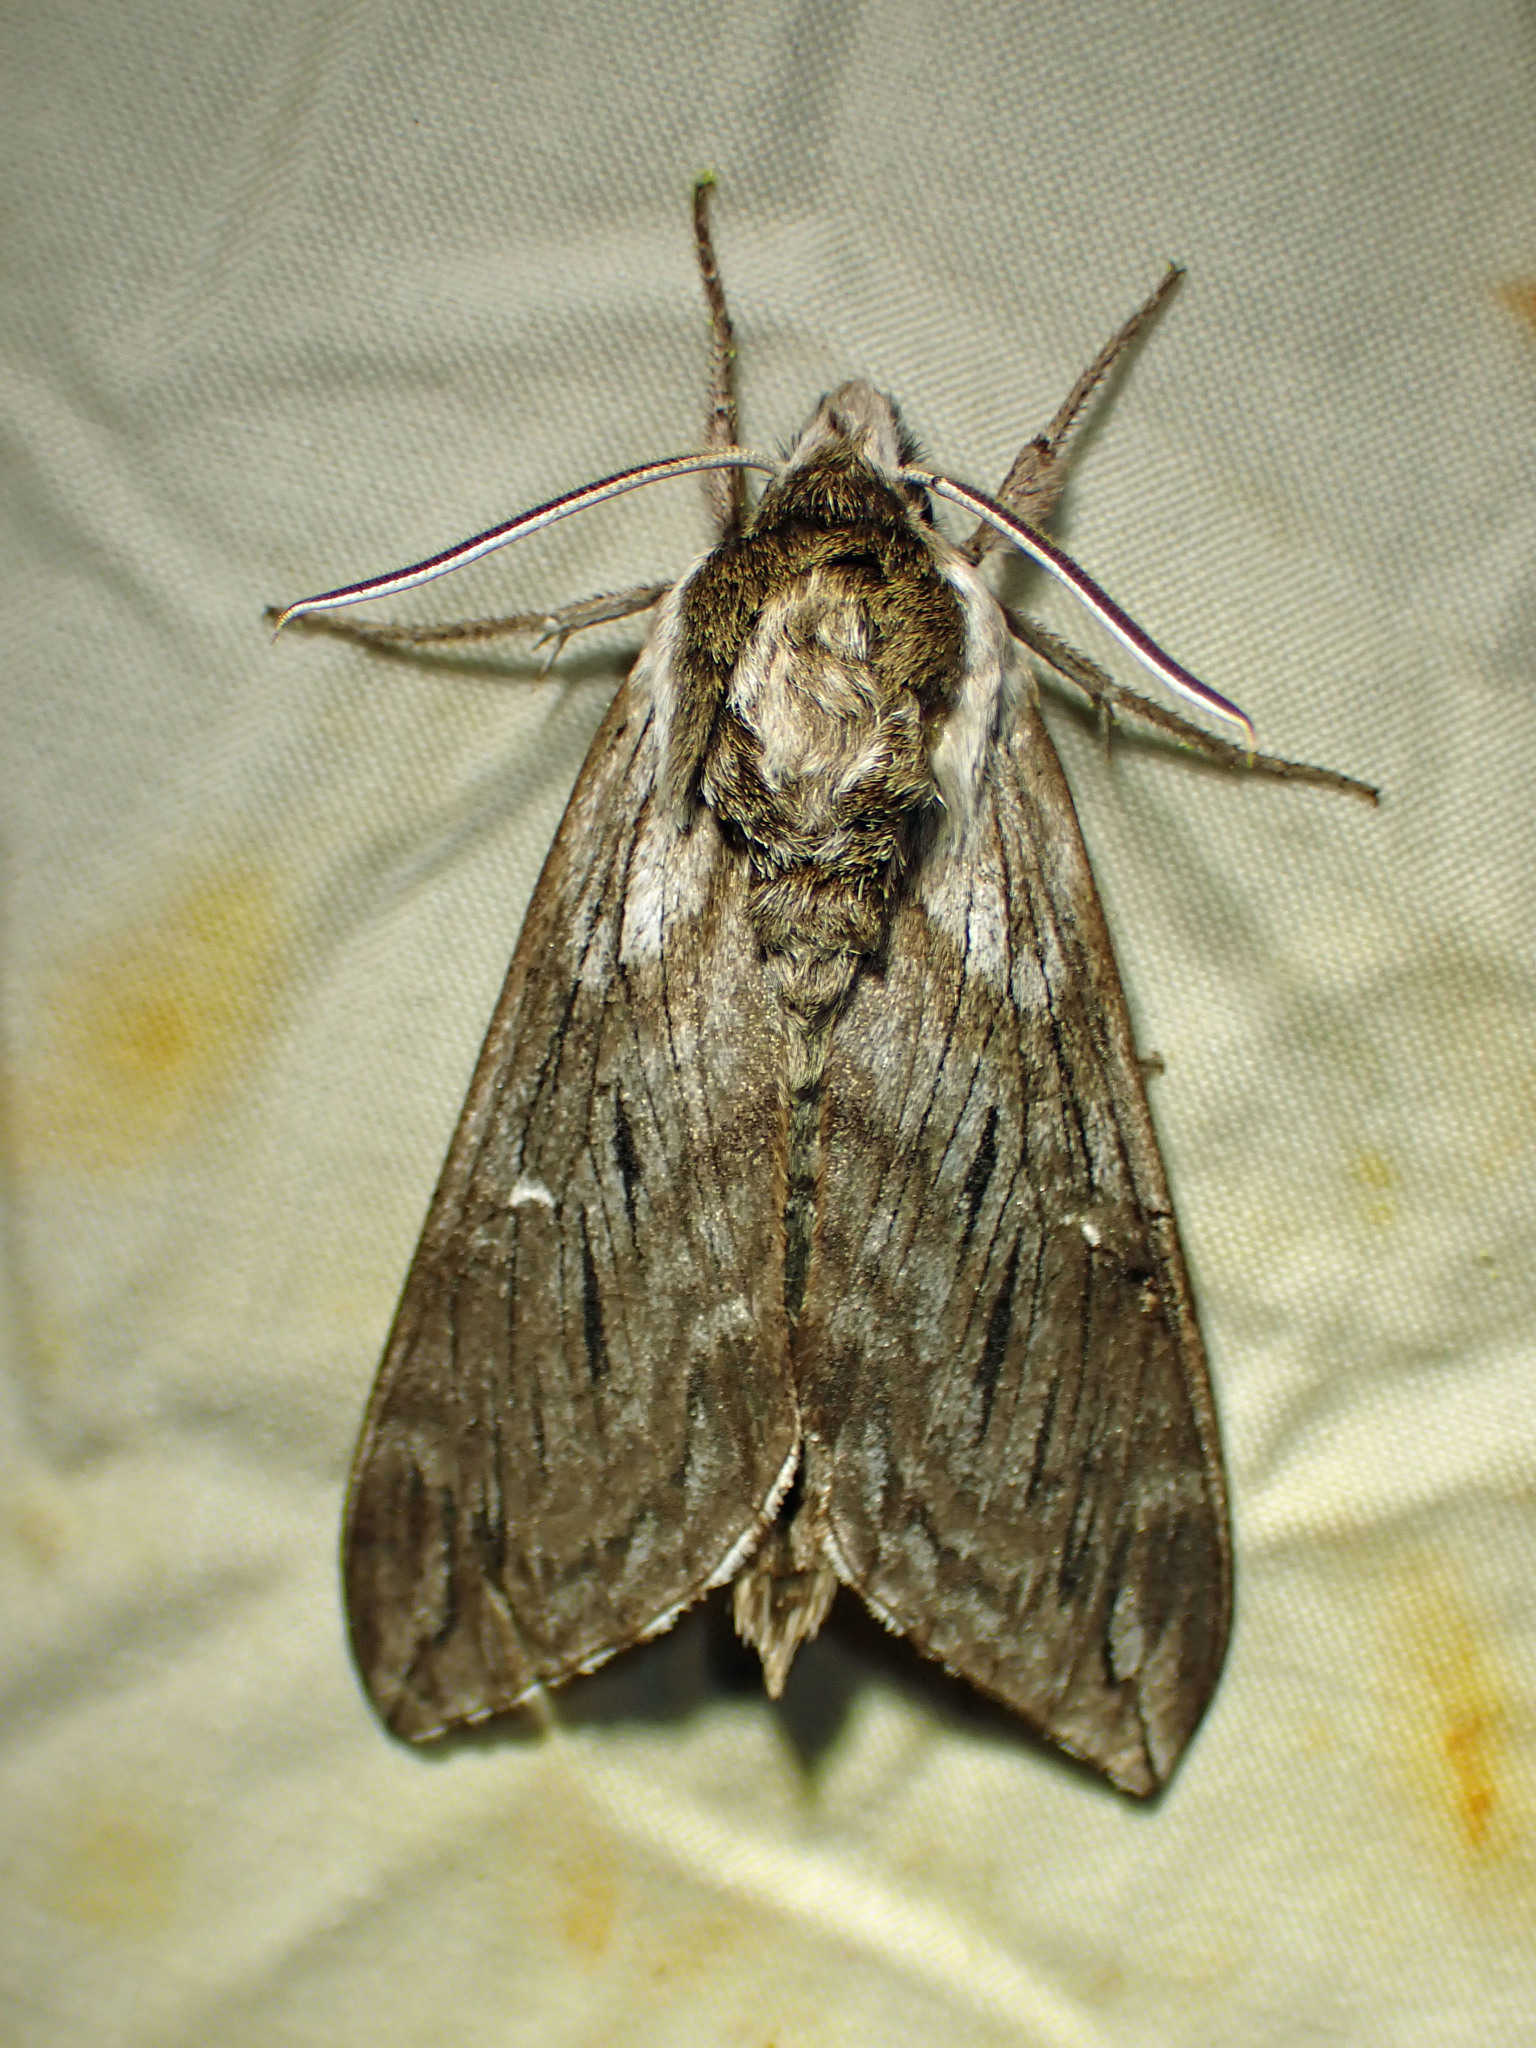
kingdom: Animalia
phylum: Arthropoda
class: Insecta
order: Lepidoptera
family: Sphingidae
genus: Sphinx
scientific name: Sphinx poecila
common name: Northern apple sphinx
